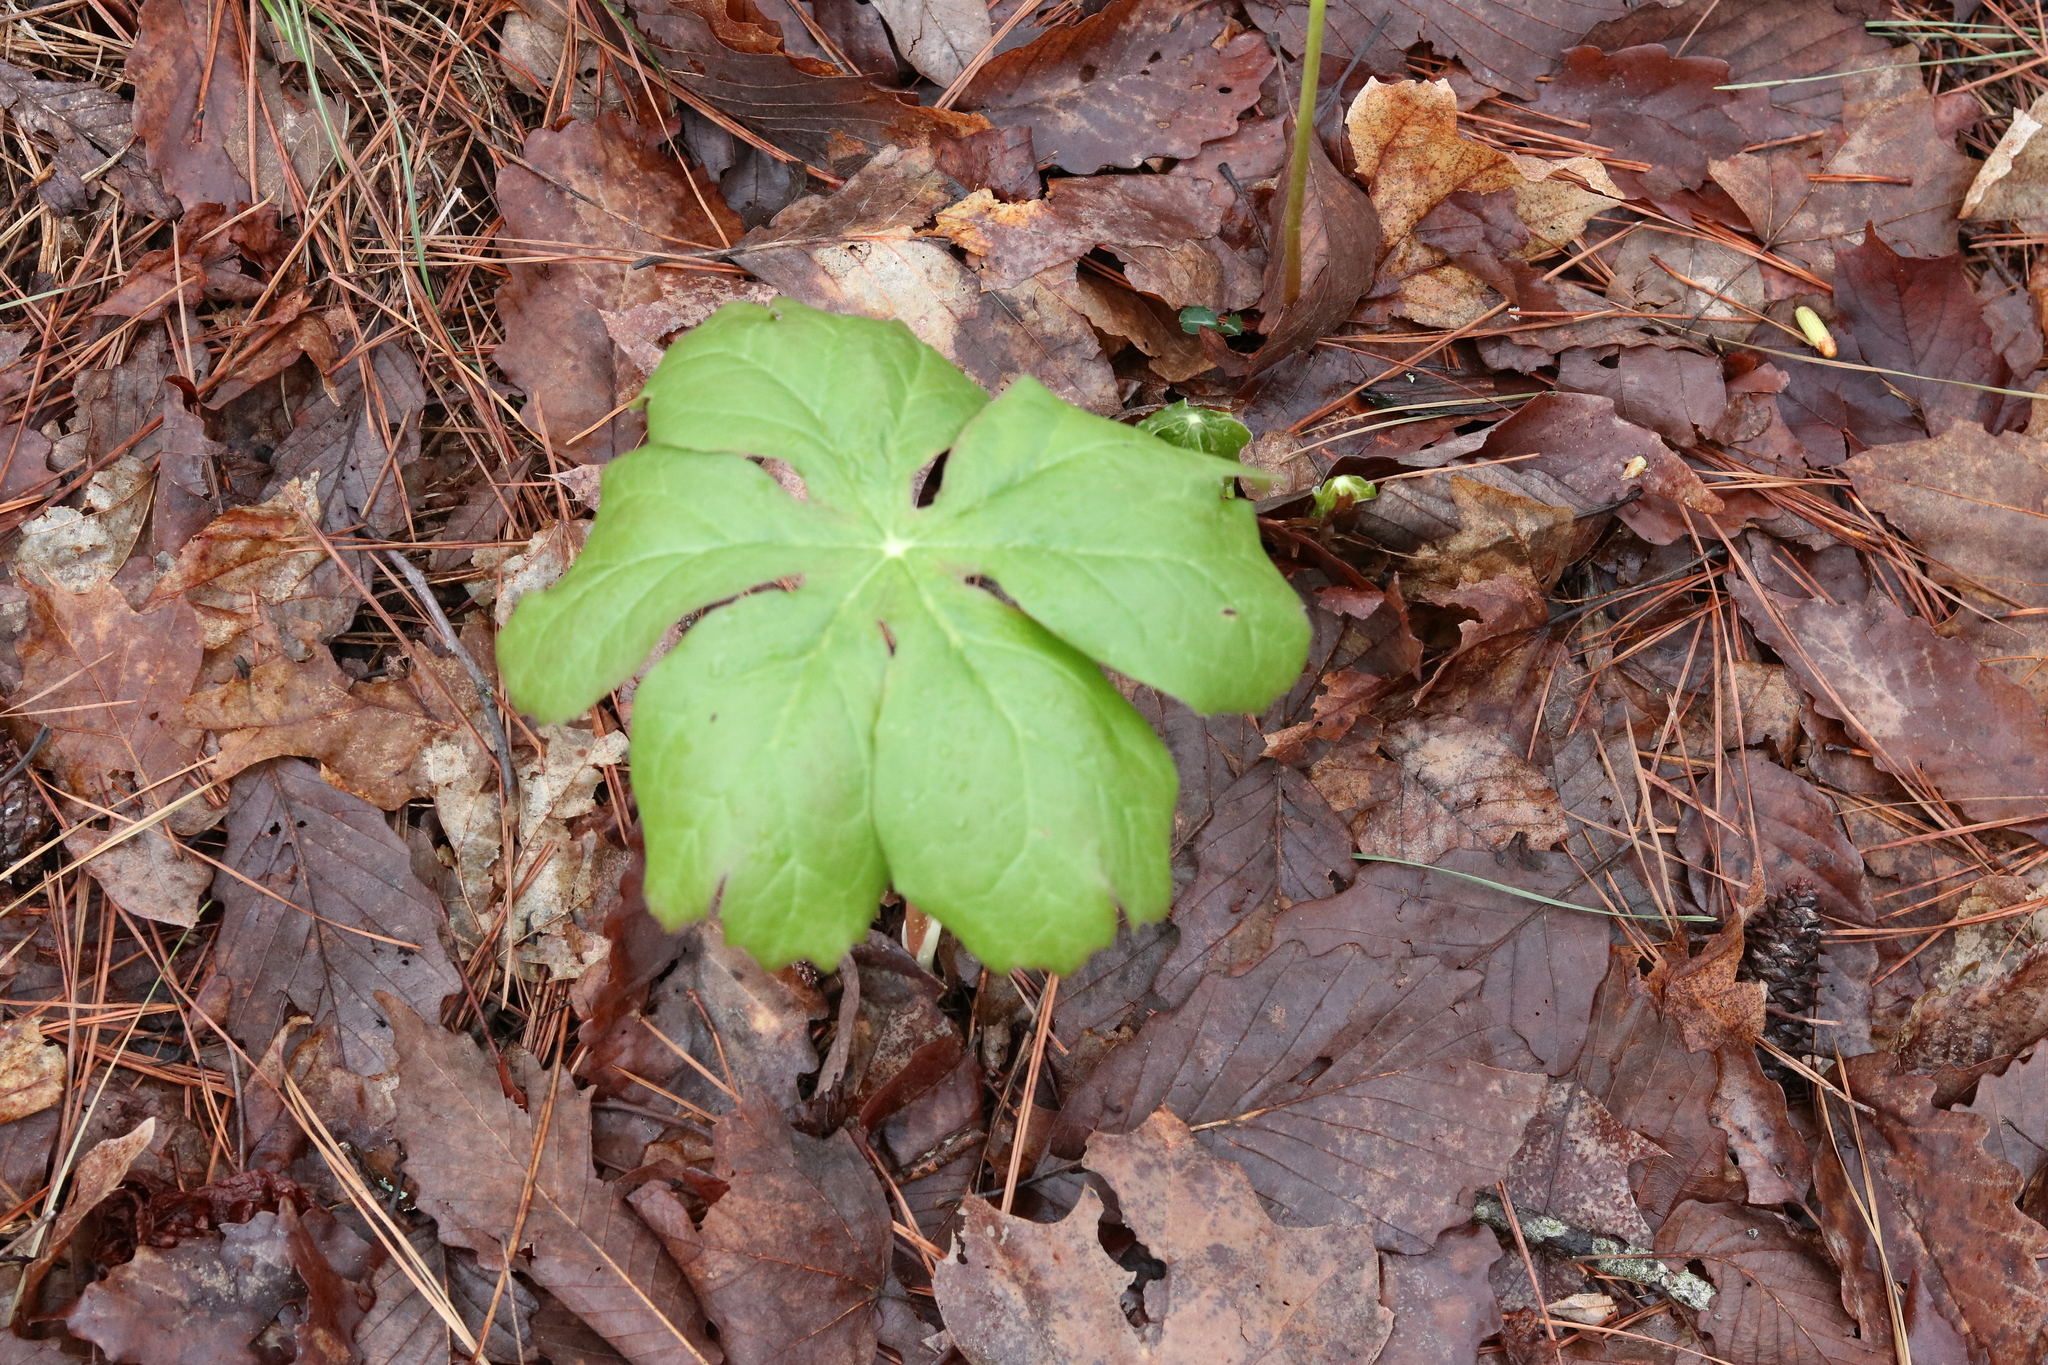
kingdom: Plantae
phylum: Tracheophyta
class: Magnoliopsida
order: Ranunculales
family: Berberidaceae
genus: Podophyllum
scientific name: Podophyllum peltatum
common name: Wild mandrake
